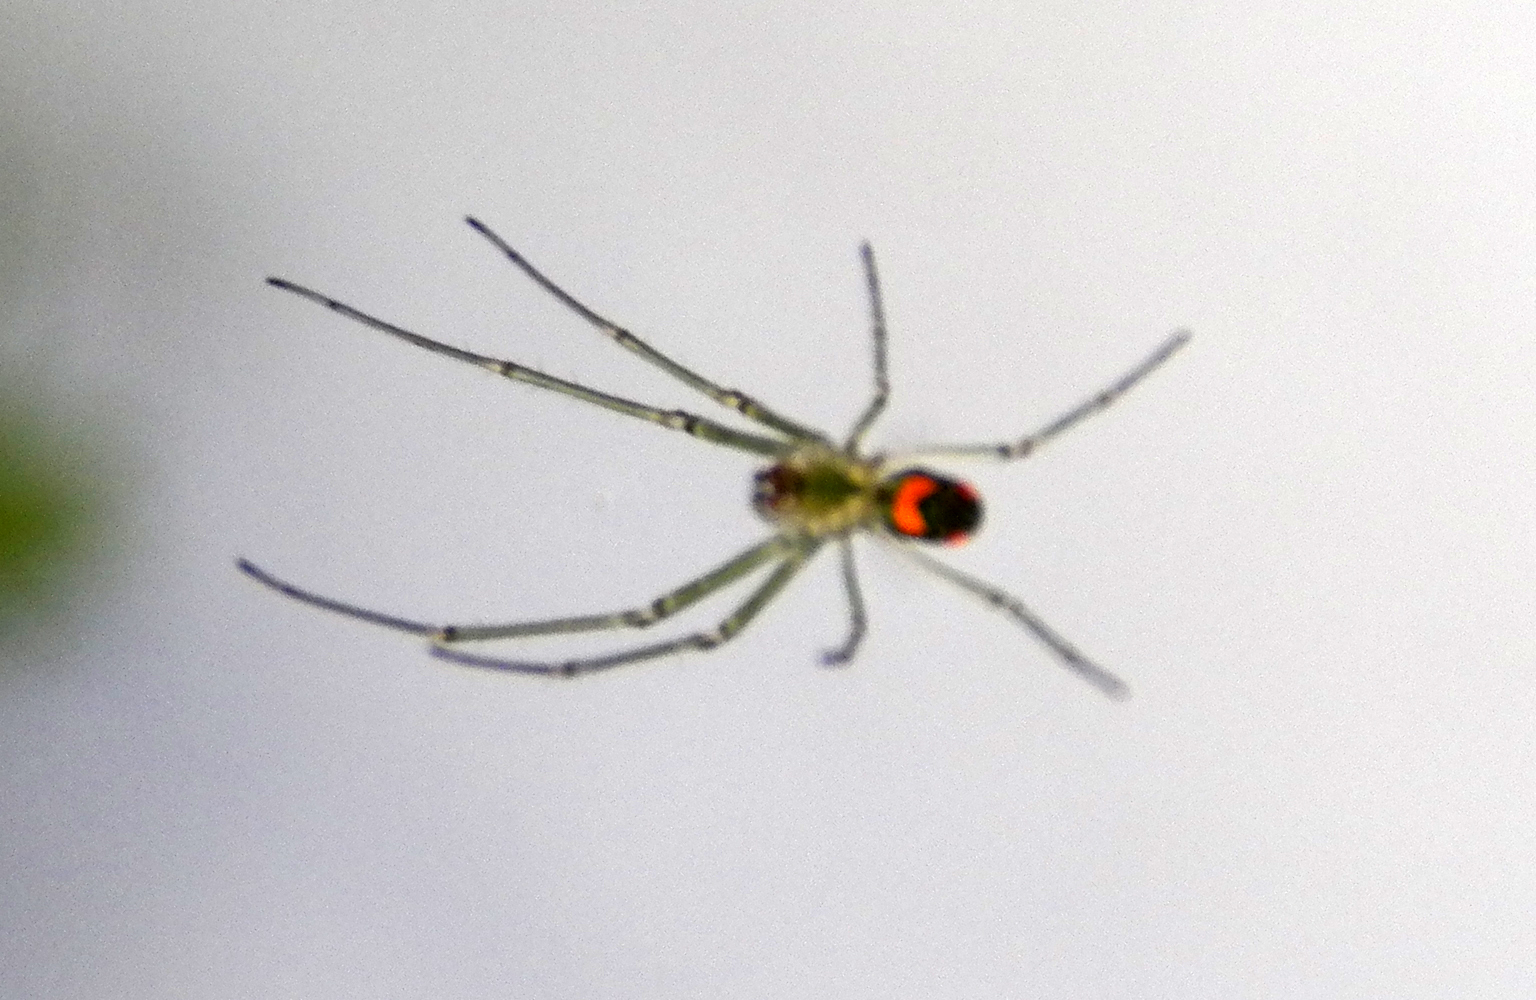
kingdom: Animalia
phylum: Arthropoda
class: Arachnida
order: Araneae
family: Tetragnathidae
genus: Leucauge
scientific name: Leucauge argyrobapta
